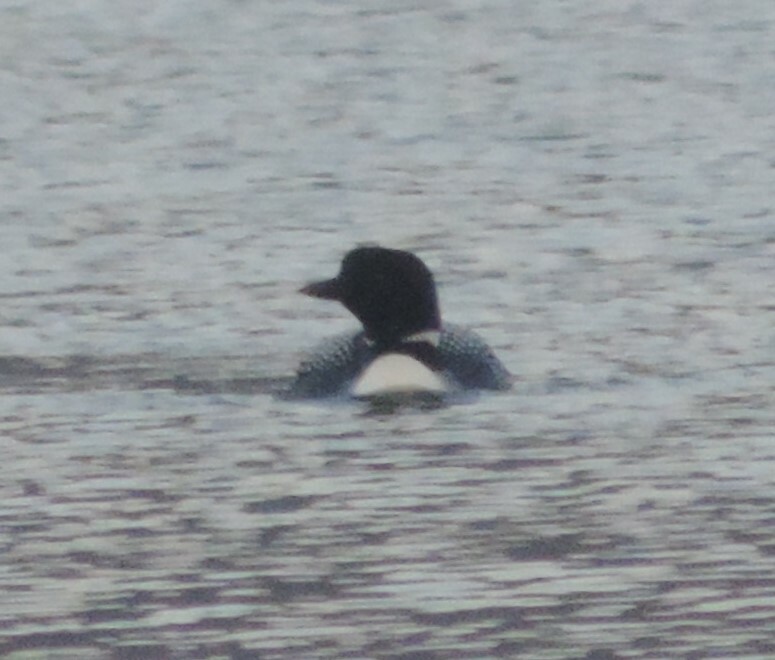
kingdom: Animalia
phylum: Chordata
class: Aves
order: Gaviiformes
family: Gaviidae
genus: Gavia
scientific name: Gavia immer
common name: Common loon
